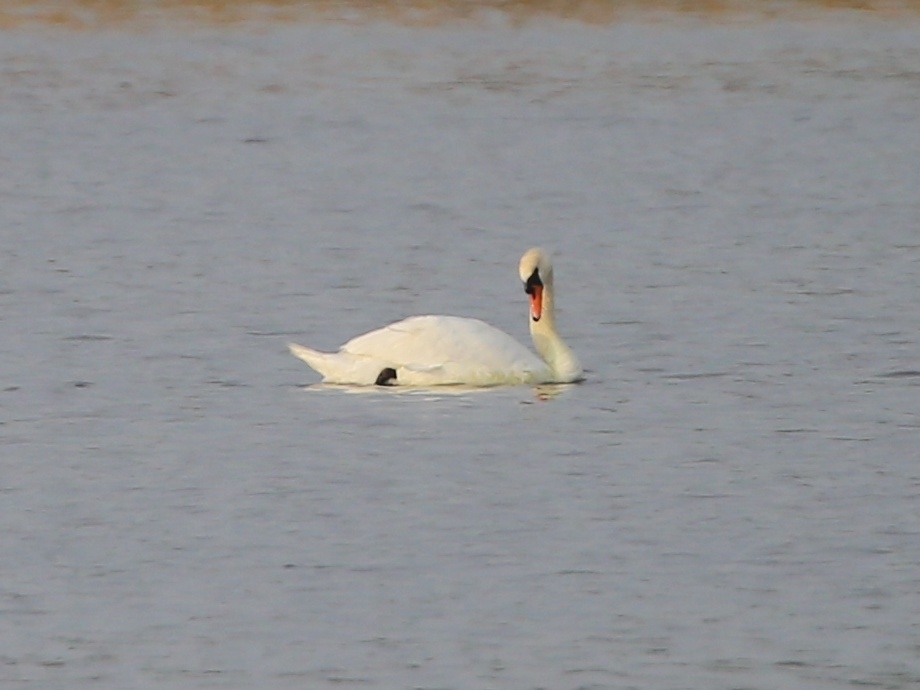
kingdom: Animalia
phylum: Chordata
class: Aves
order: Anseriformes
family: Anatidae
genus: Cygnus
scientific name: Cygnus olor
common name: Mute swan
